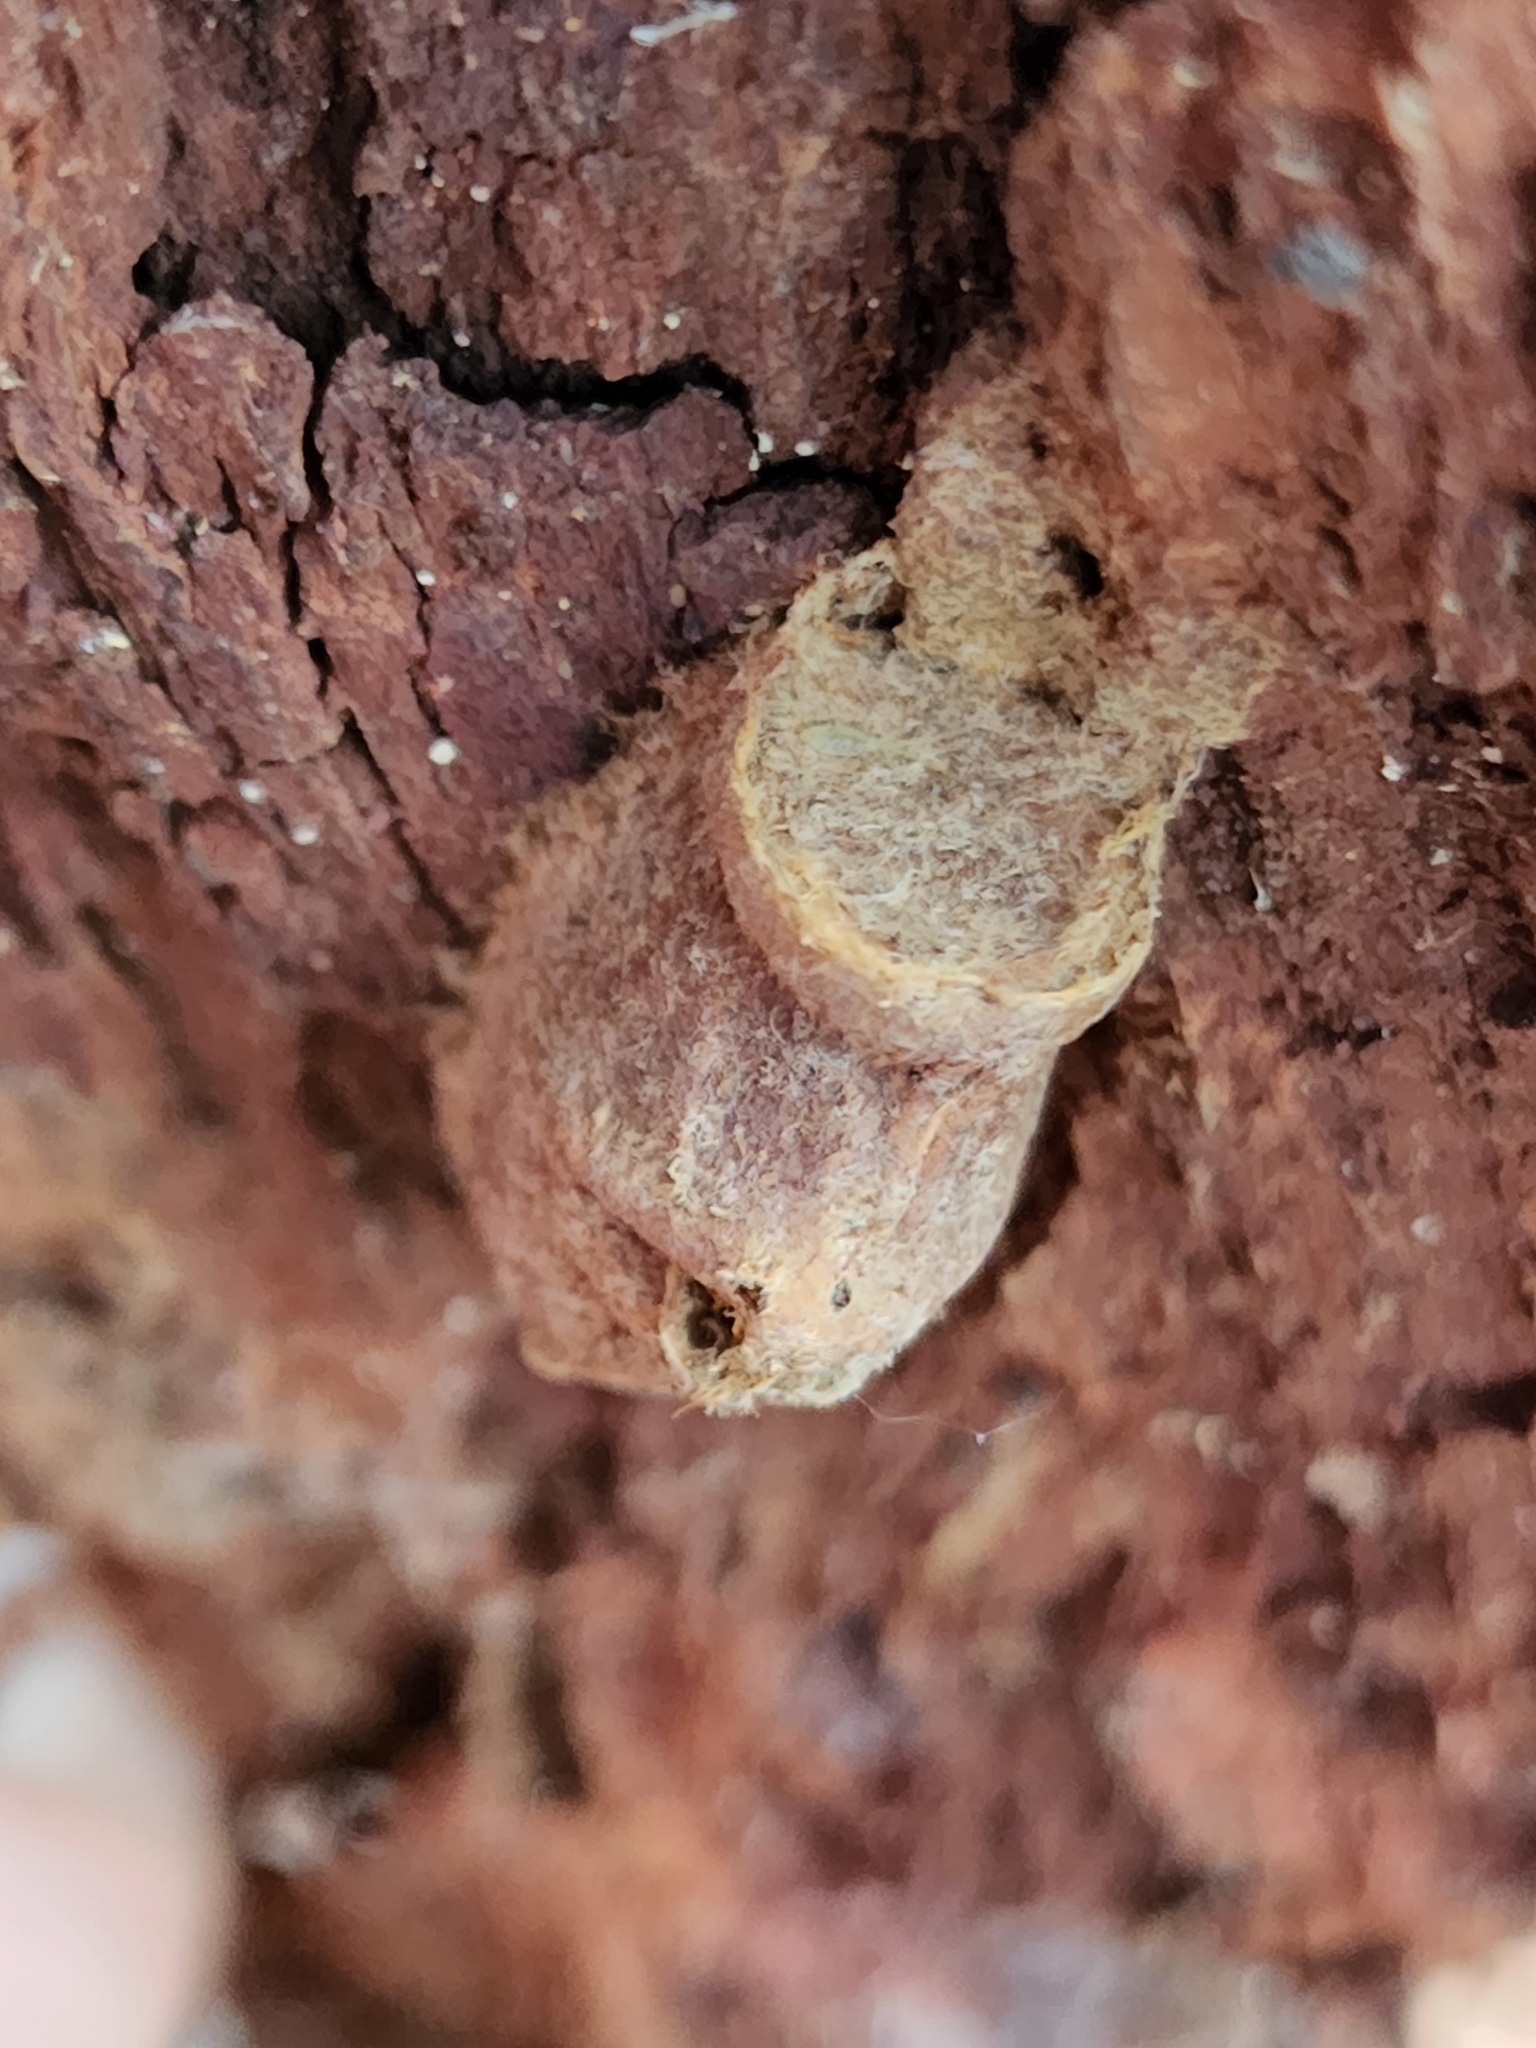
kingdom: Animalia
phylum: Arthropoda
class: Insecta
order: Lepidoptera
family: Megalopygidae
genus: Megalopyge
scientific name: Megalopyge
